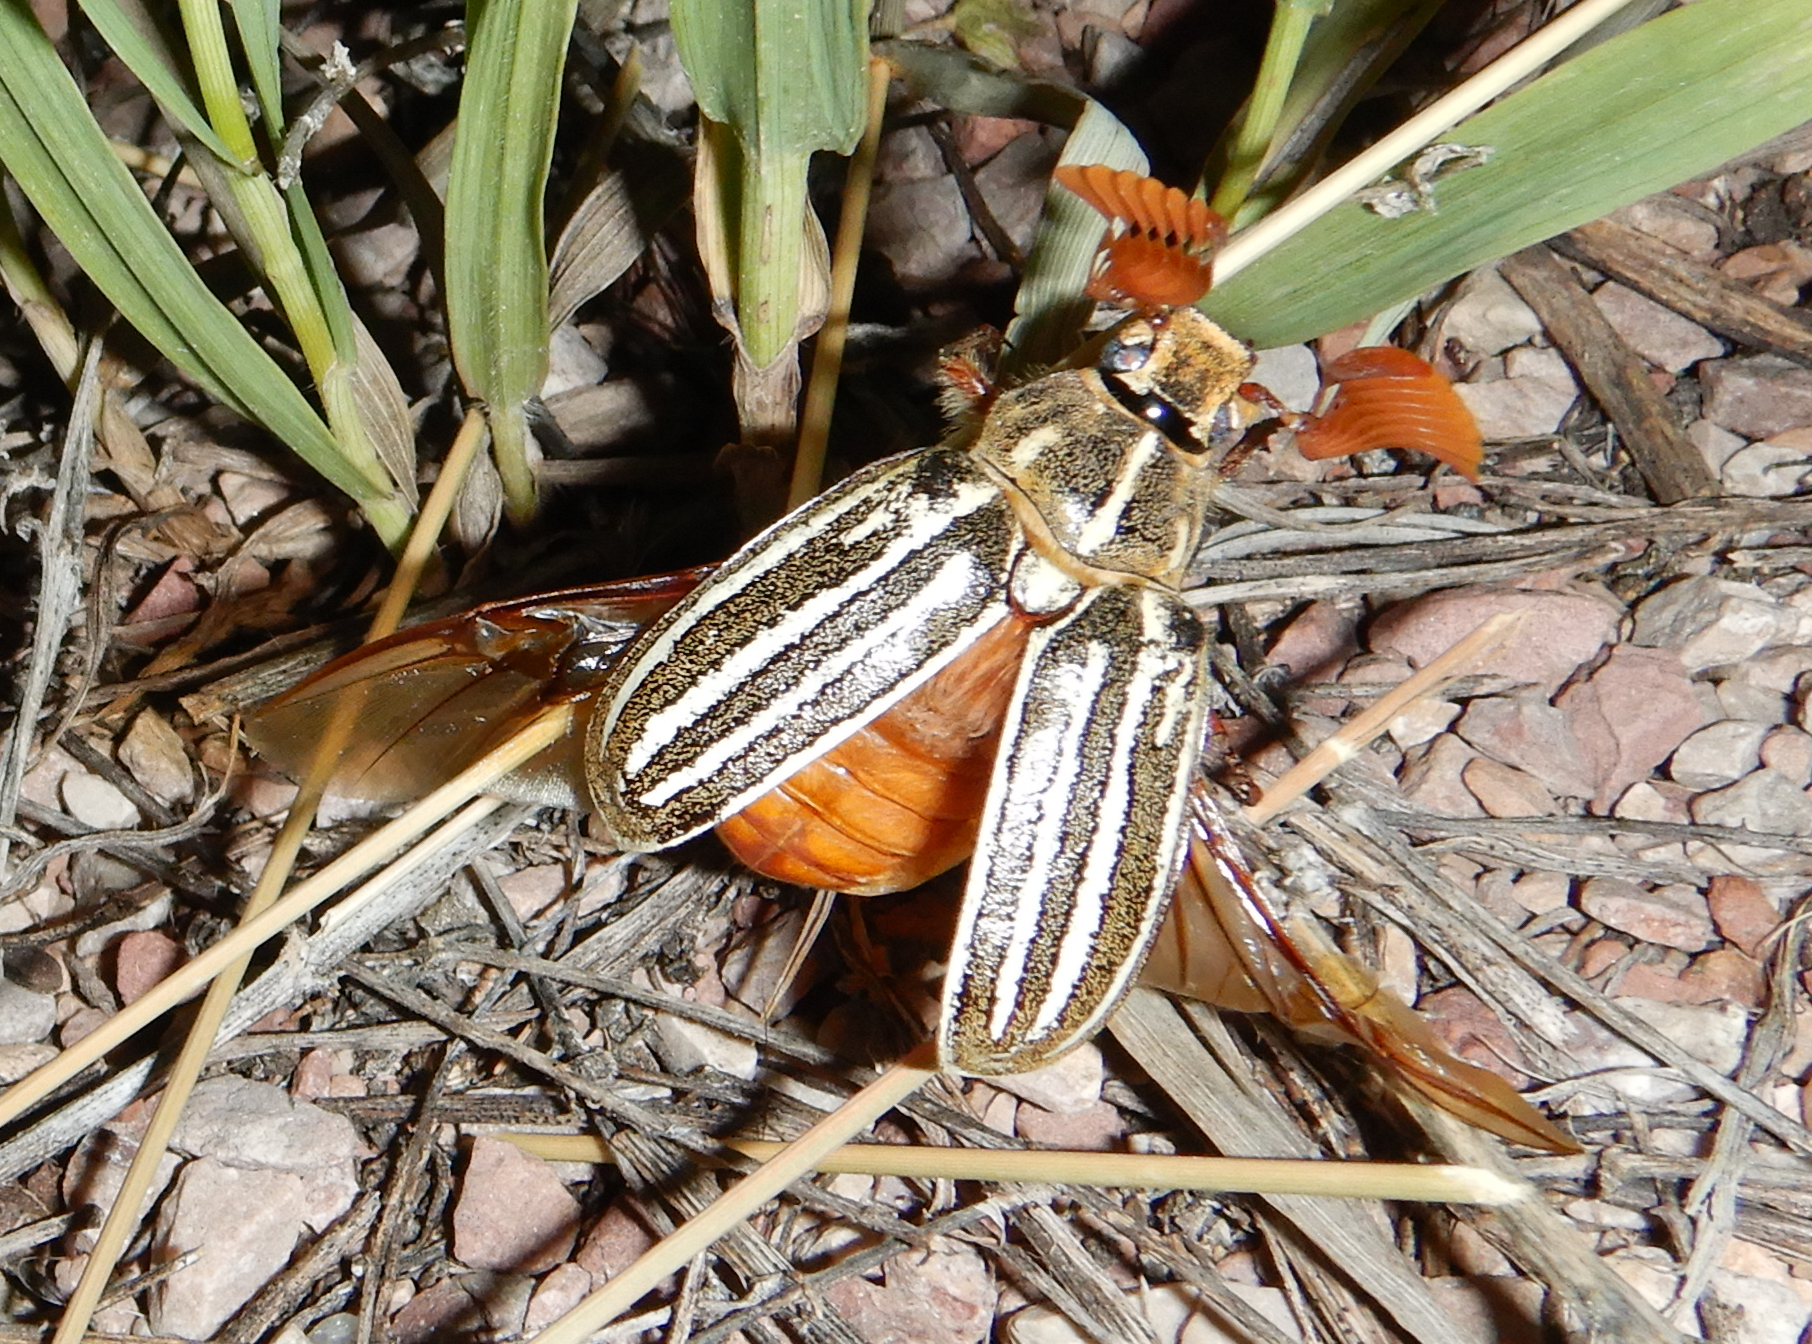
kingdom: Animalia
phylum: Arthropoda
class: Insecta
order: Coleoptera
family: Scarabaeidae
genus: Polyphylla
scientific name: Polyphylla decemlineata
